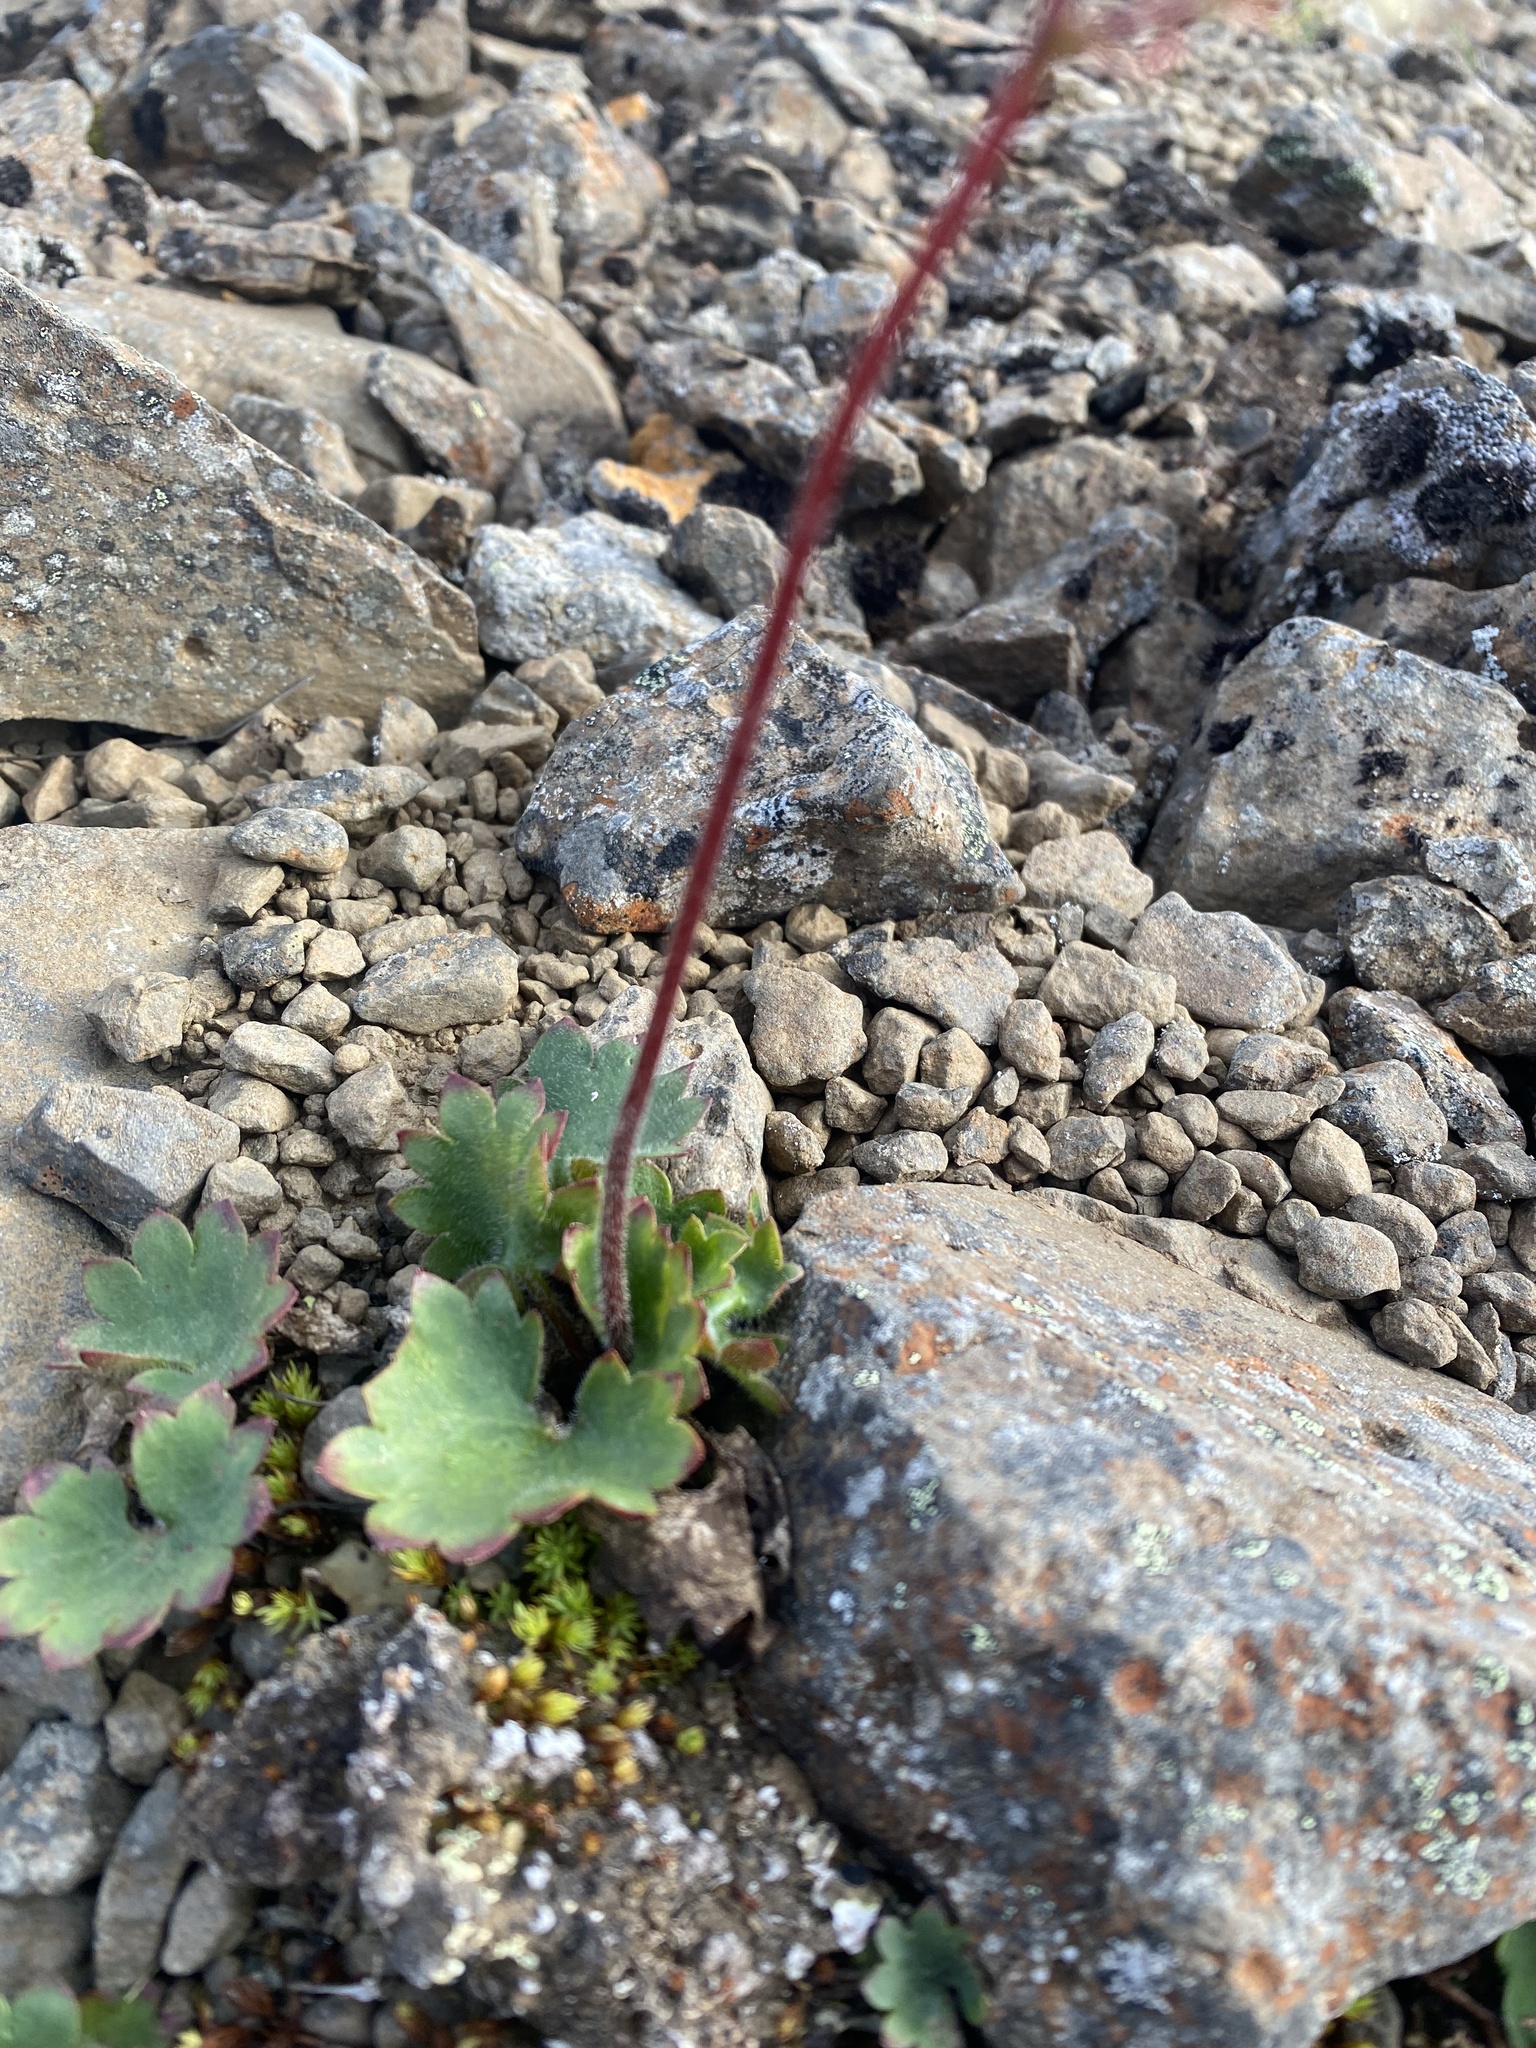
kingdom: Plantae
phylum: Tracheophyta
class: Magnoliopsida
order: Saxifragales
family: Saxifragaceae
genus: Micranthes
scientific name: Micranthes nelsoniana
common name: Nelson's saxifrage
